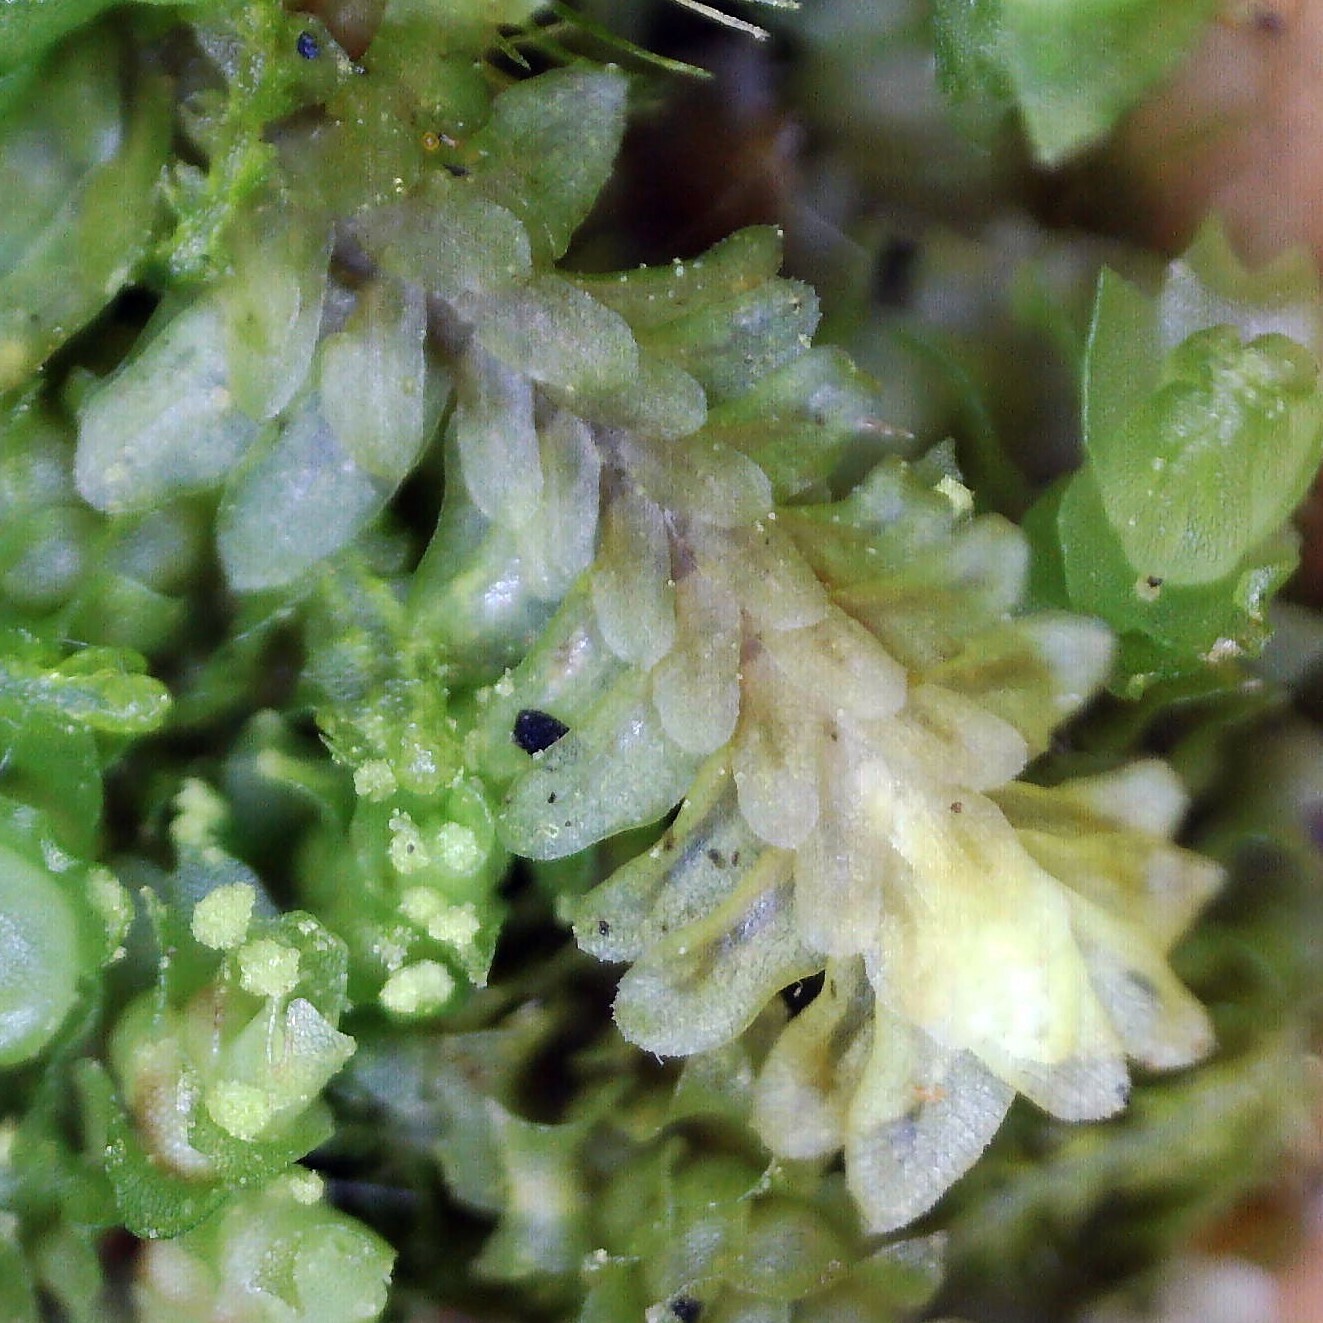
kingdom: Plantae
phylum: Marchantiophyta
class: Jungermanniopsida
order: Jungermanniales
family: Scapaniaceae
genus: Diplophyllum
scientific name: Diplophyllum albicans
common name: White earwort
